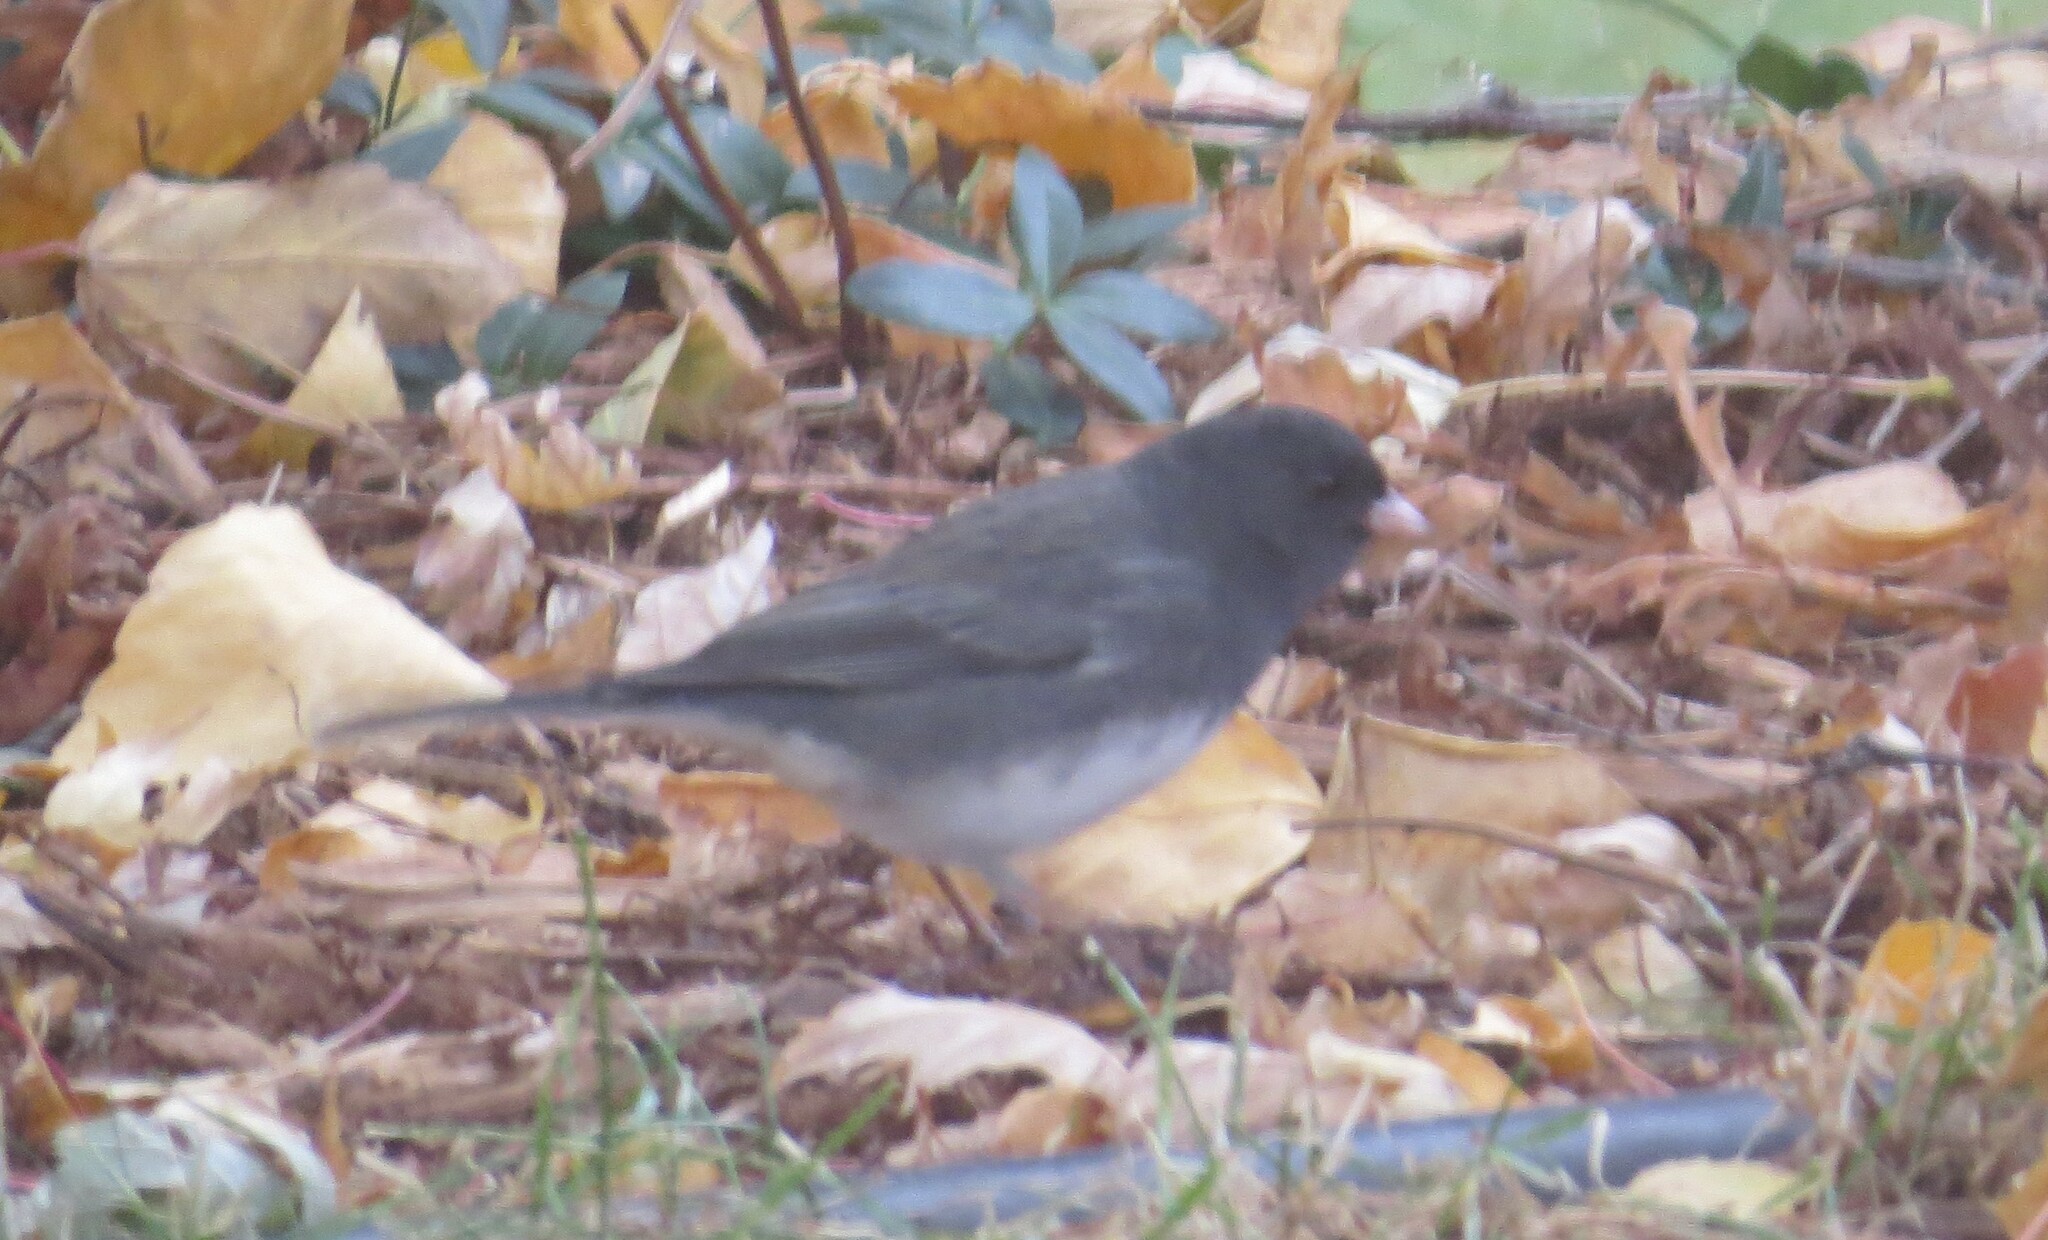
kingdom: Animalia
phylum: Chordata
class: Aves
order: Passeriformes
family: Passerellidae
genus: Junco
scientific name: Junco hyemalis
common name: Dark-eyed junco
